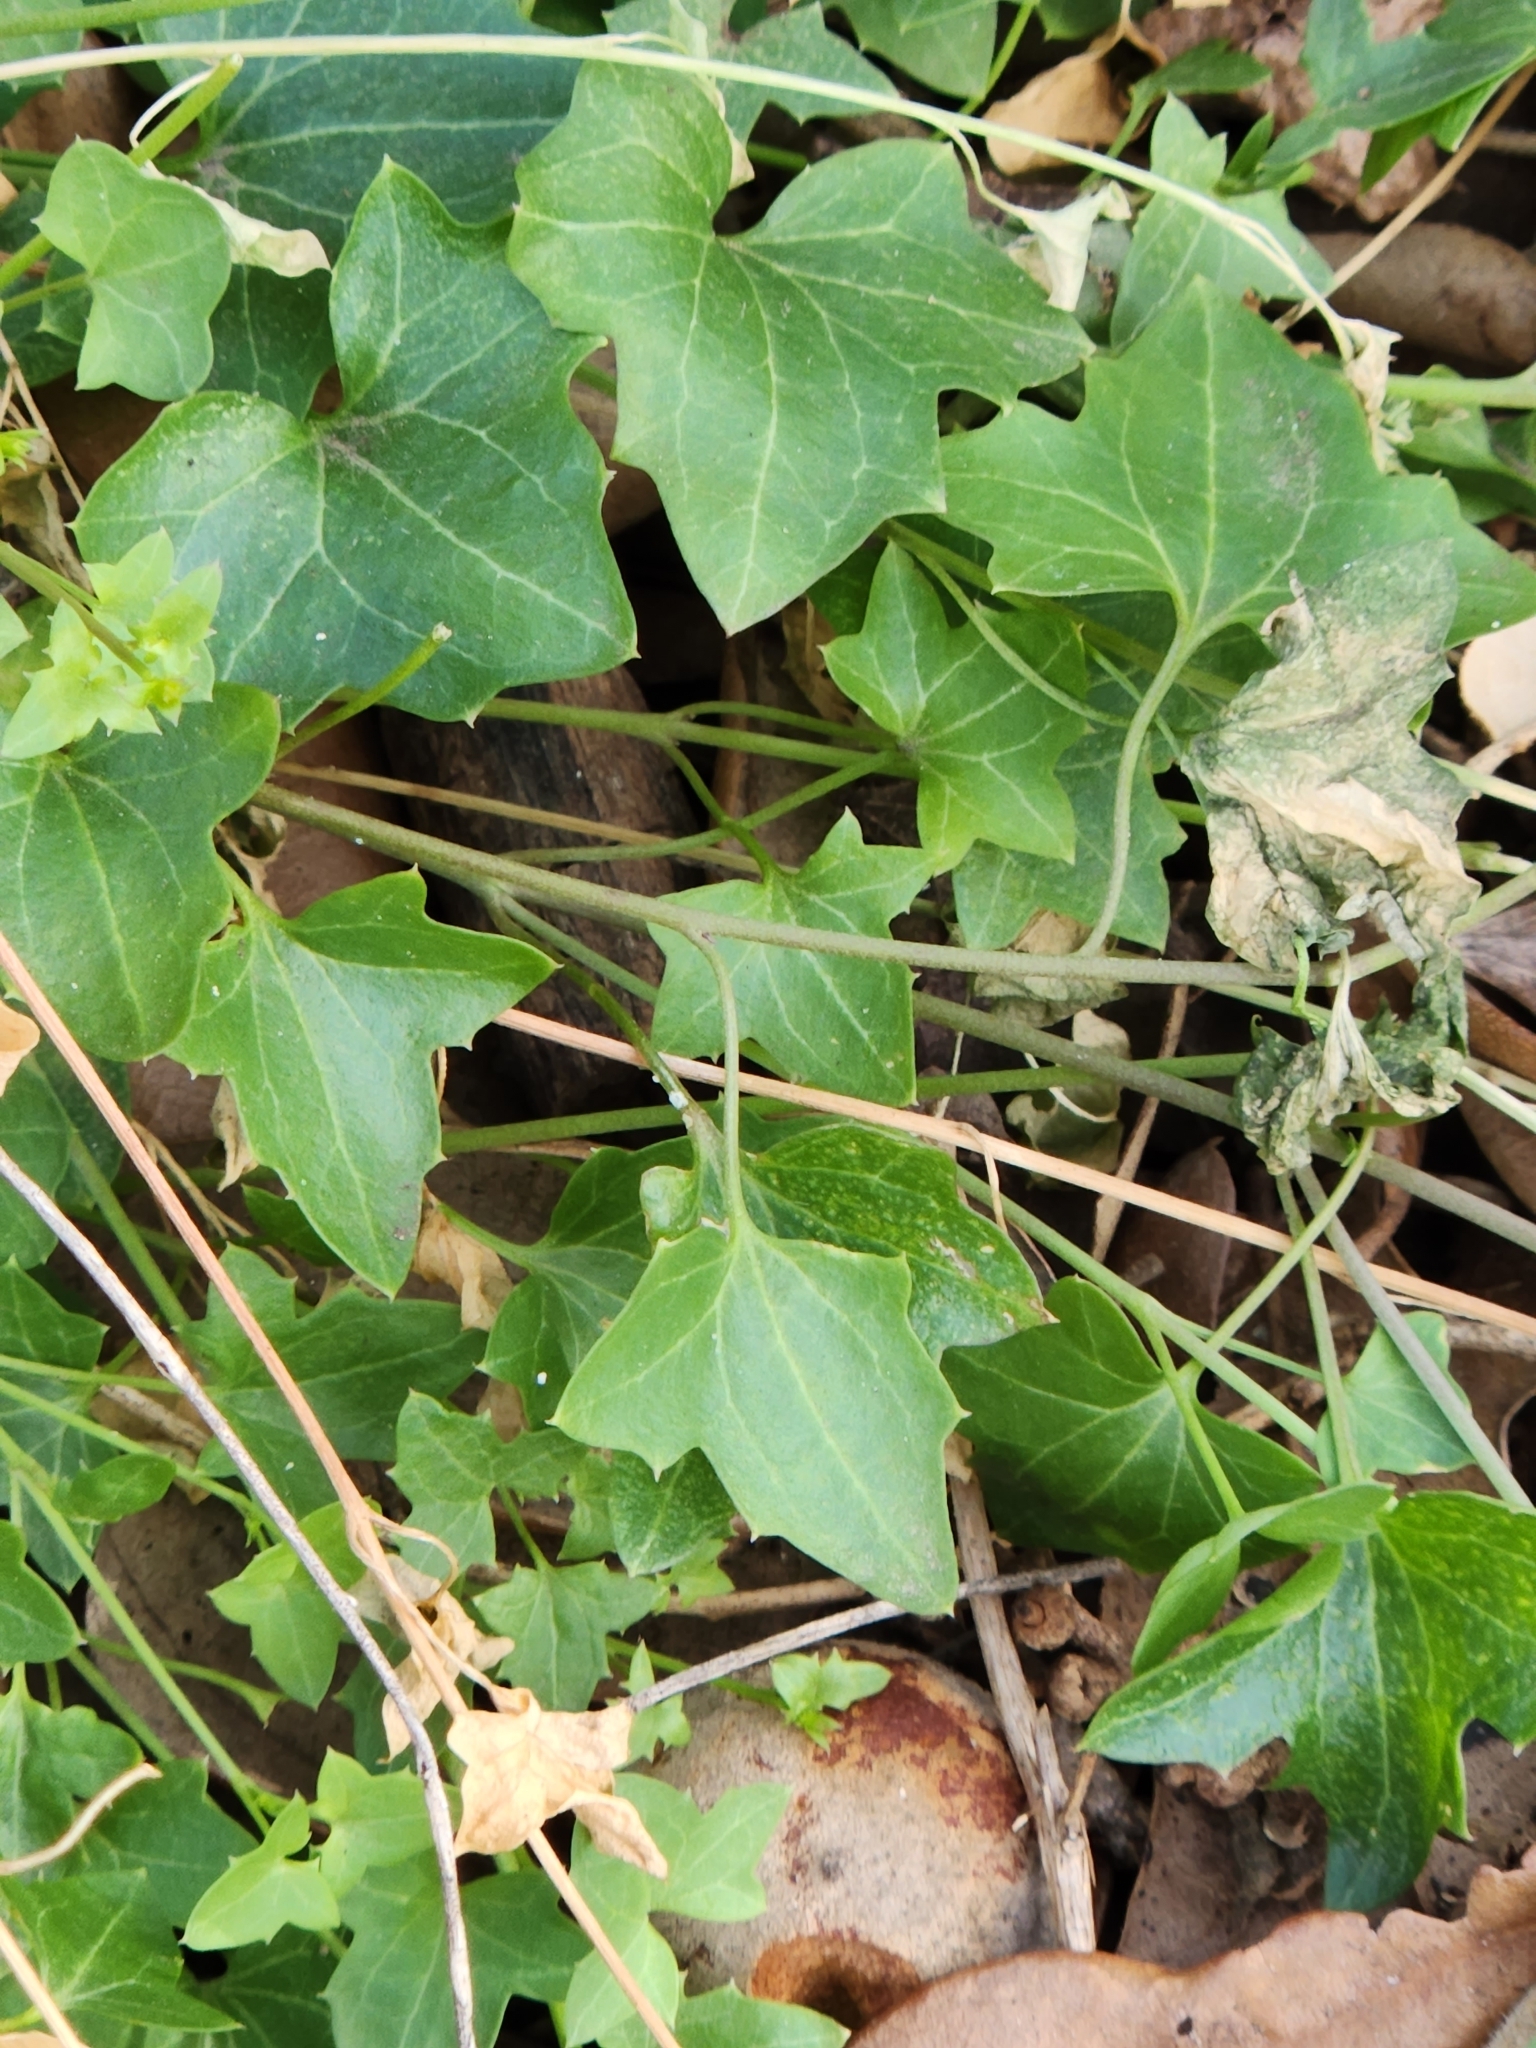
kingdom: Plantae
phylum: Tracheophyta
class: Magnoliopsida
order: Lamiales
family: Plantaginaceae
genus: Maurandella
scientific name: Maurandella antirrhiniflora
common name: Violet twining-snapdragon
